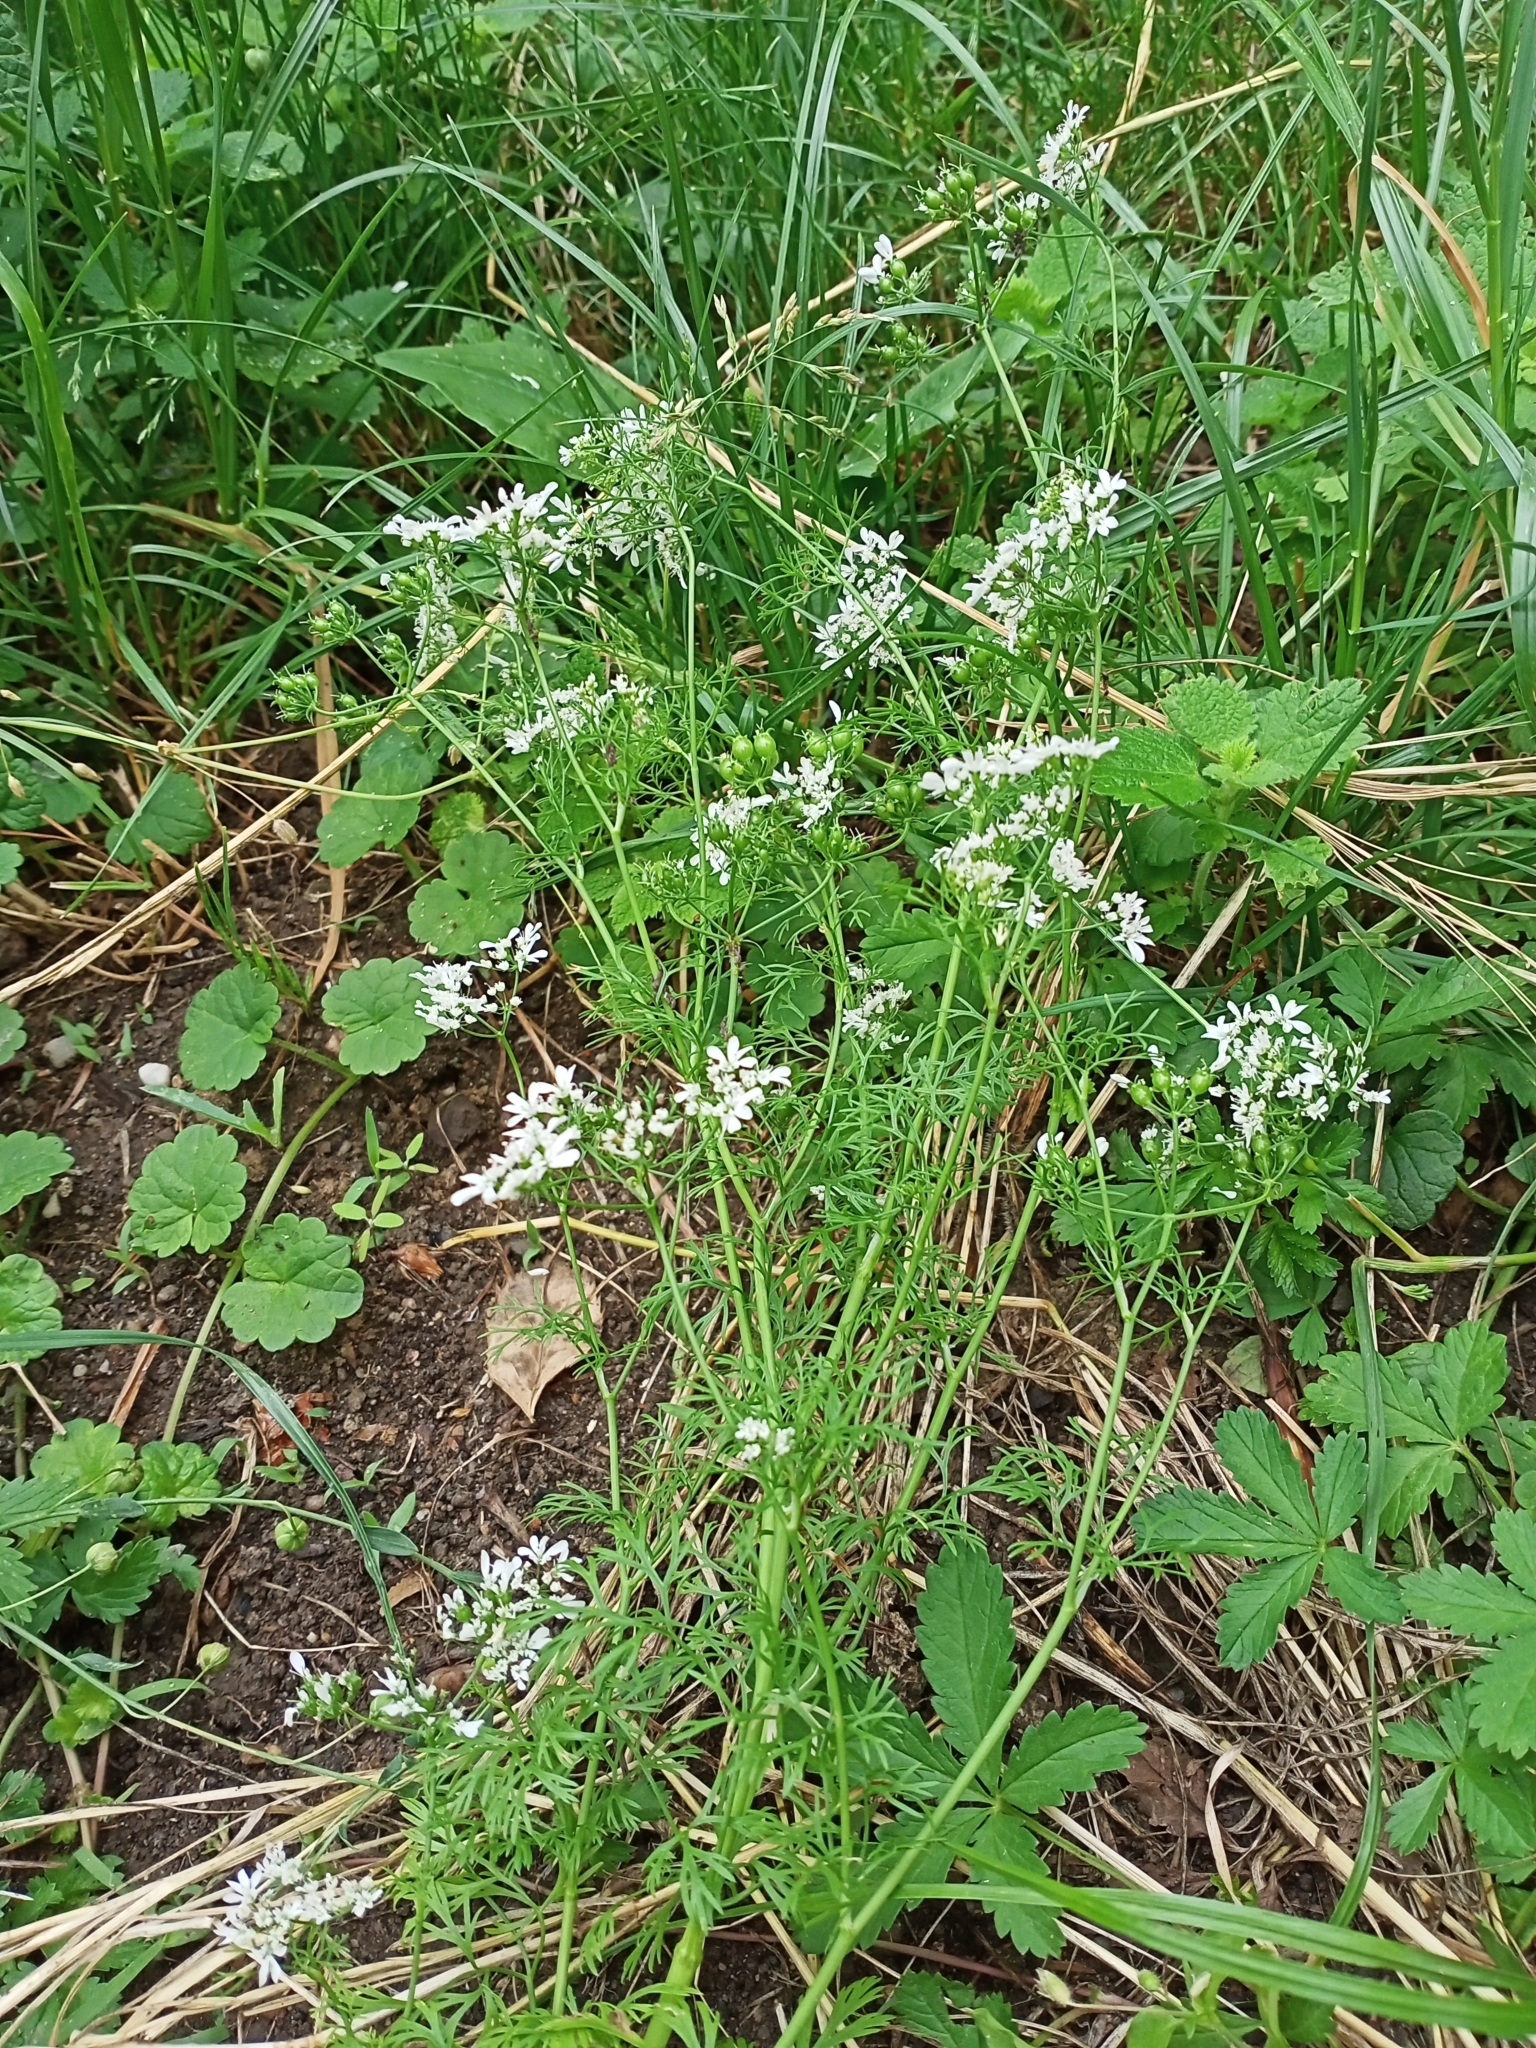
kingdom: Plantae
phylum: Tracheophyta
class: Magnoliopsida
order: Apiales
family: Apiaceae
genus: Coriandrum
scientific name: Coriandrum sativum
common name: Coriander
